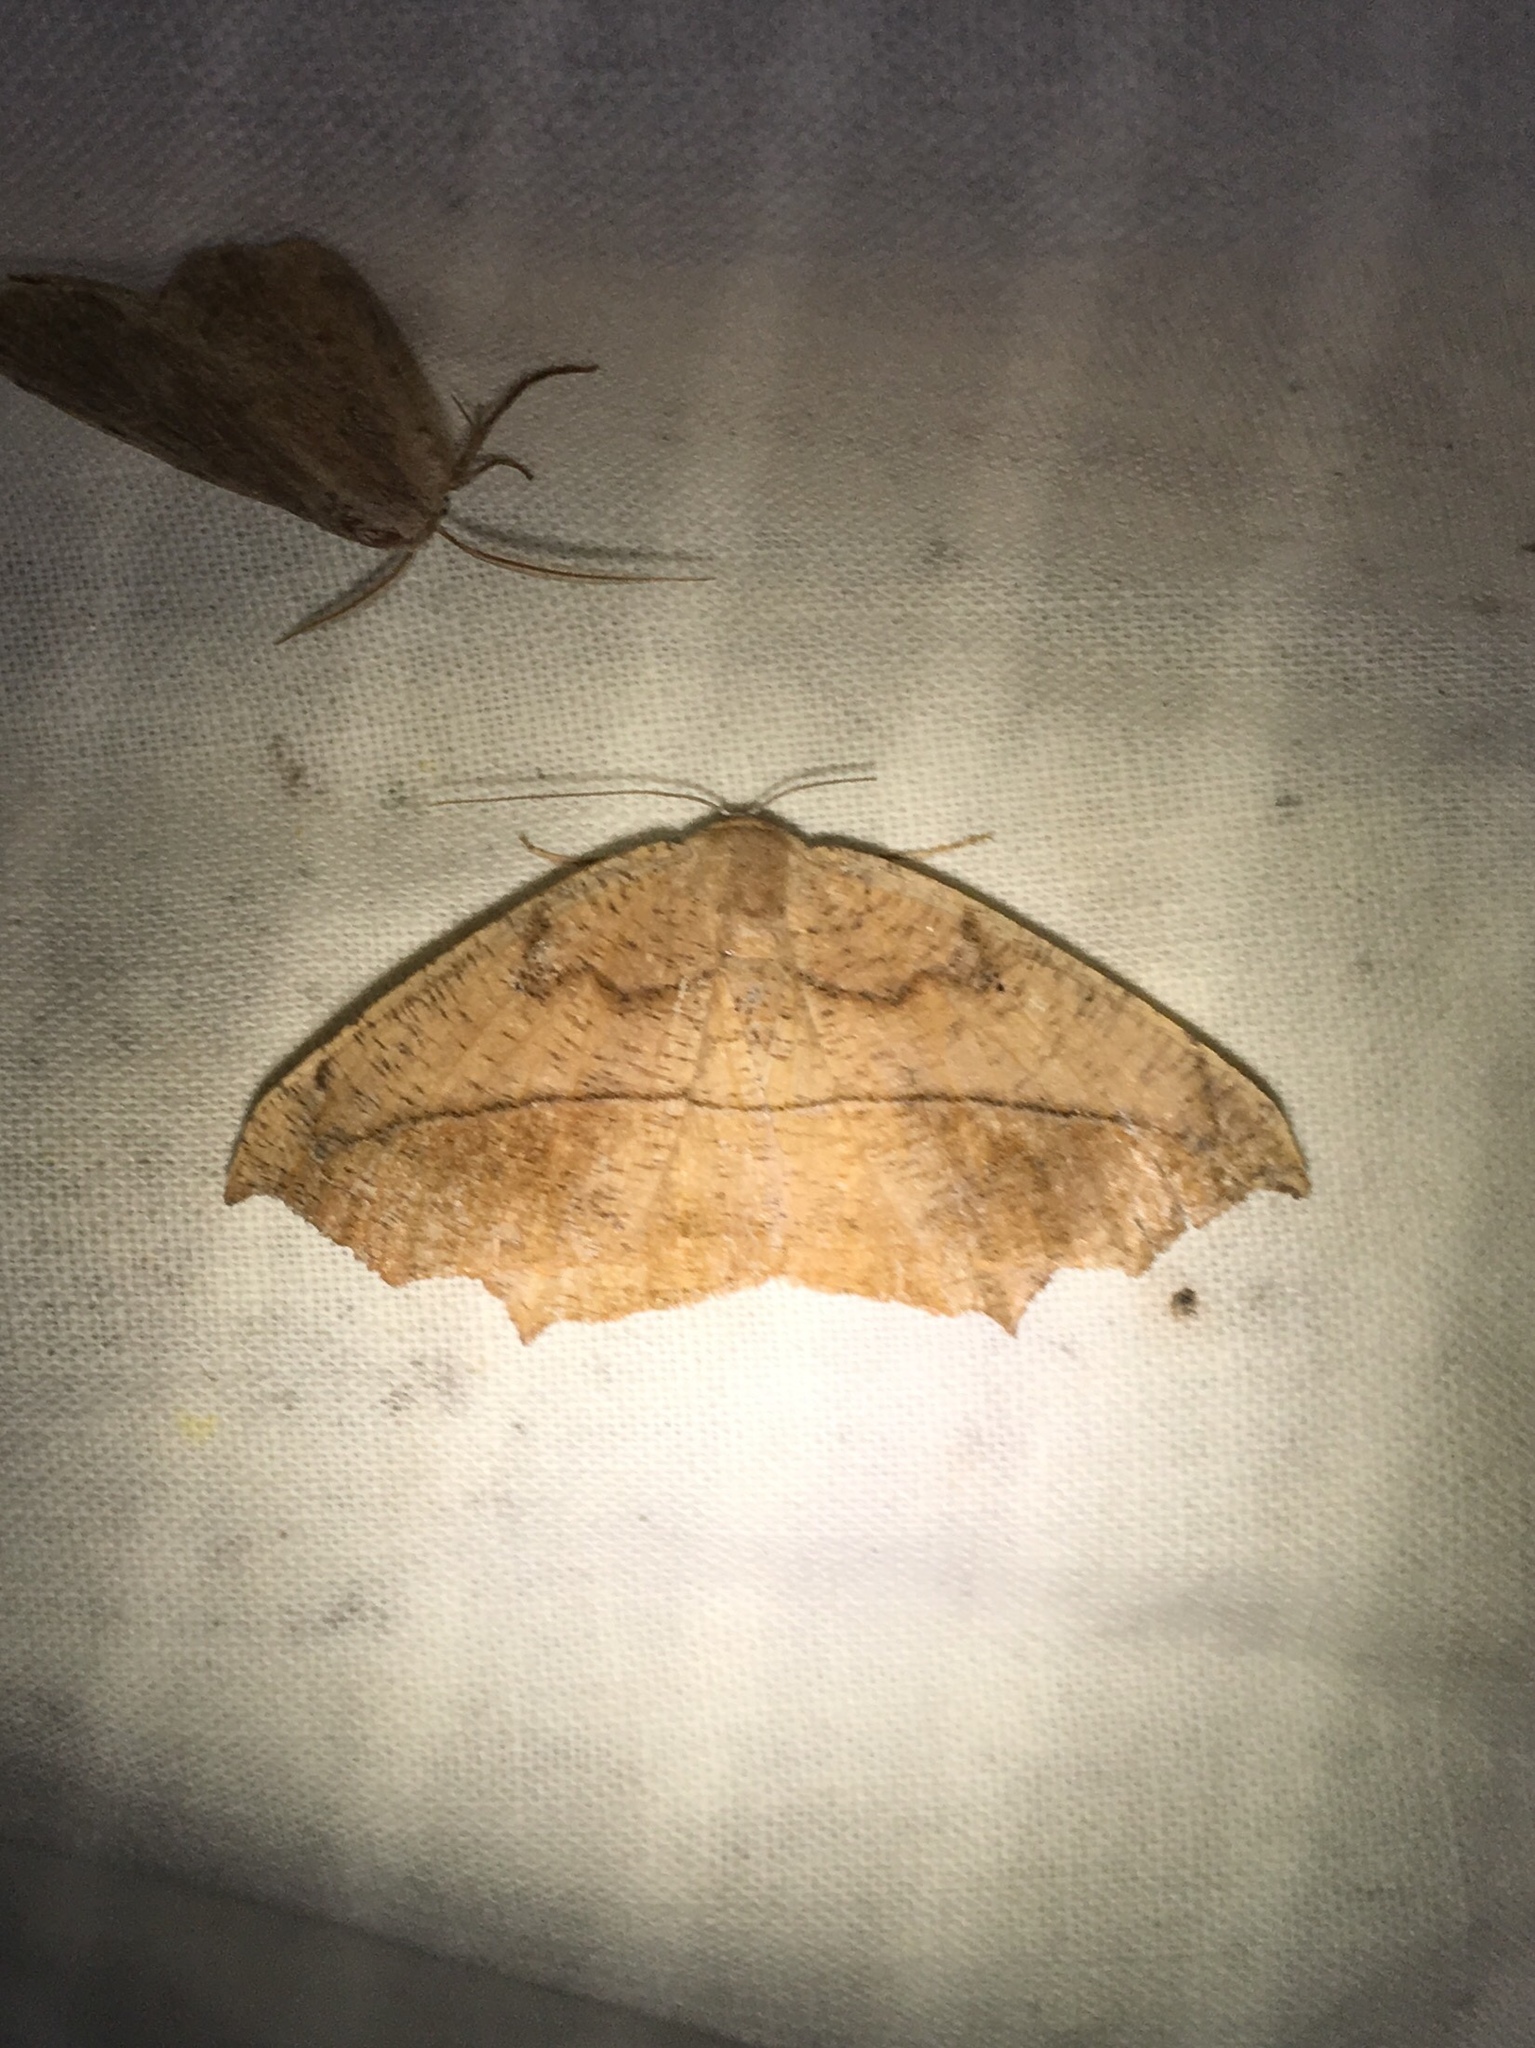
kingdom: Animalia
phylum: Arthropoda
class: Insecta
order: Lepidoptera
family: Geometridae
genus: Prochoerodes
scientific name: Prochoerodes lineola
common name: Large maple spanworm
